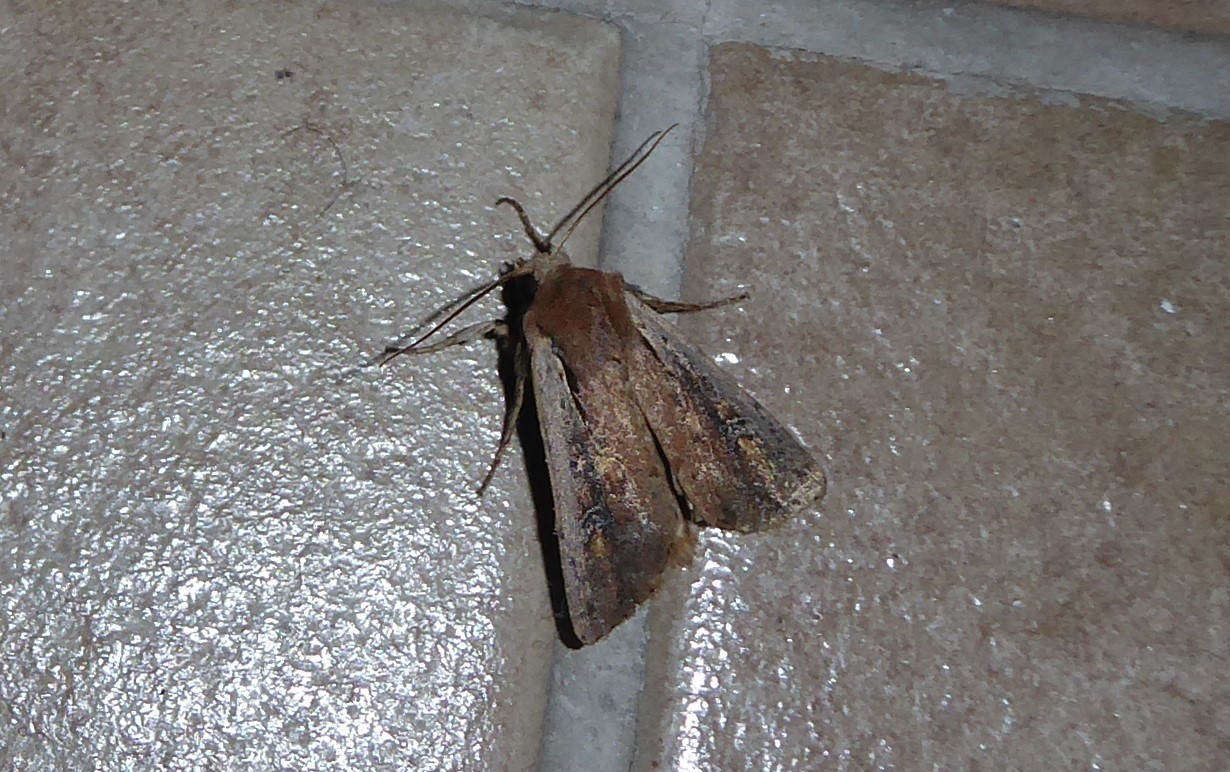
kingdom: Animalia
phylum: Arthropoda
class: Insecta
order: Lepidoptera
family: Noctuidae
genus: Ichneutica
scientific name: Ichneutica atristriga
